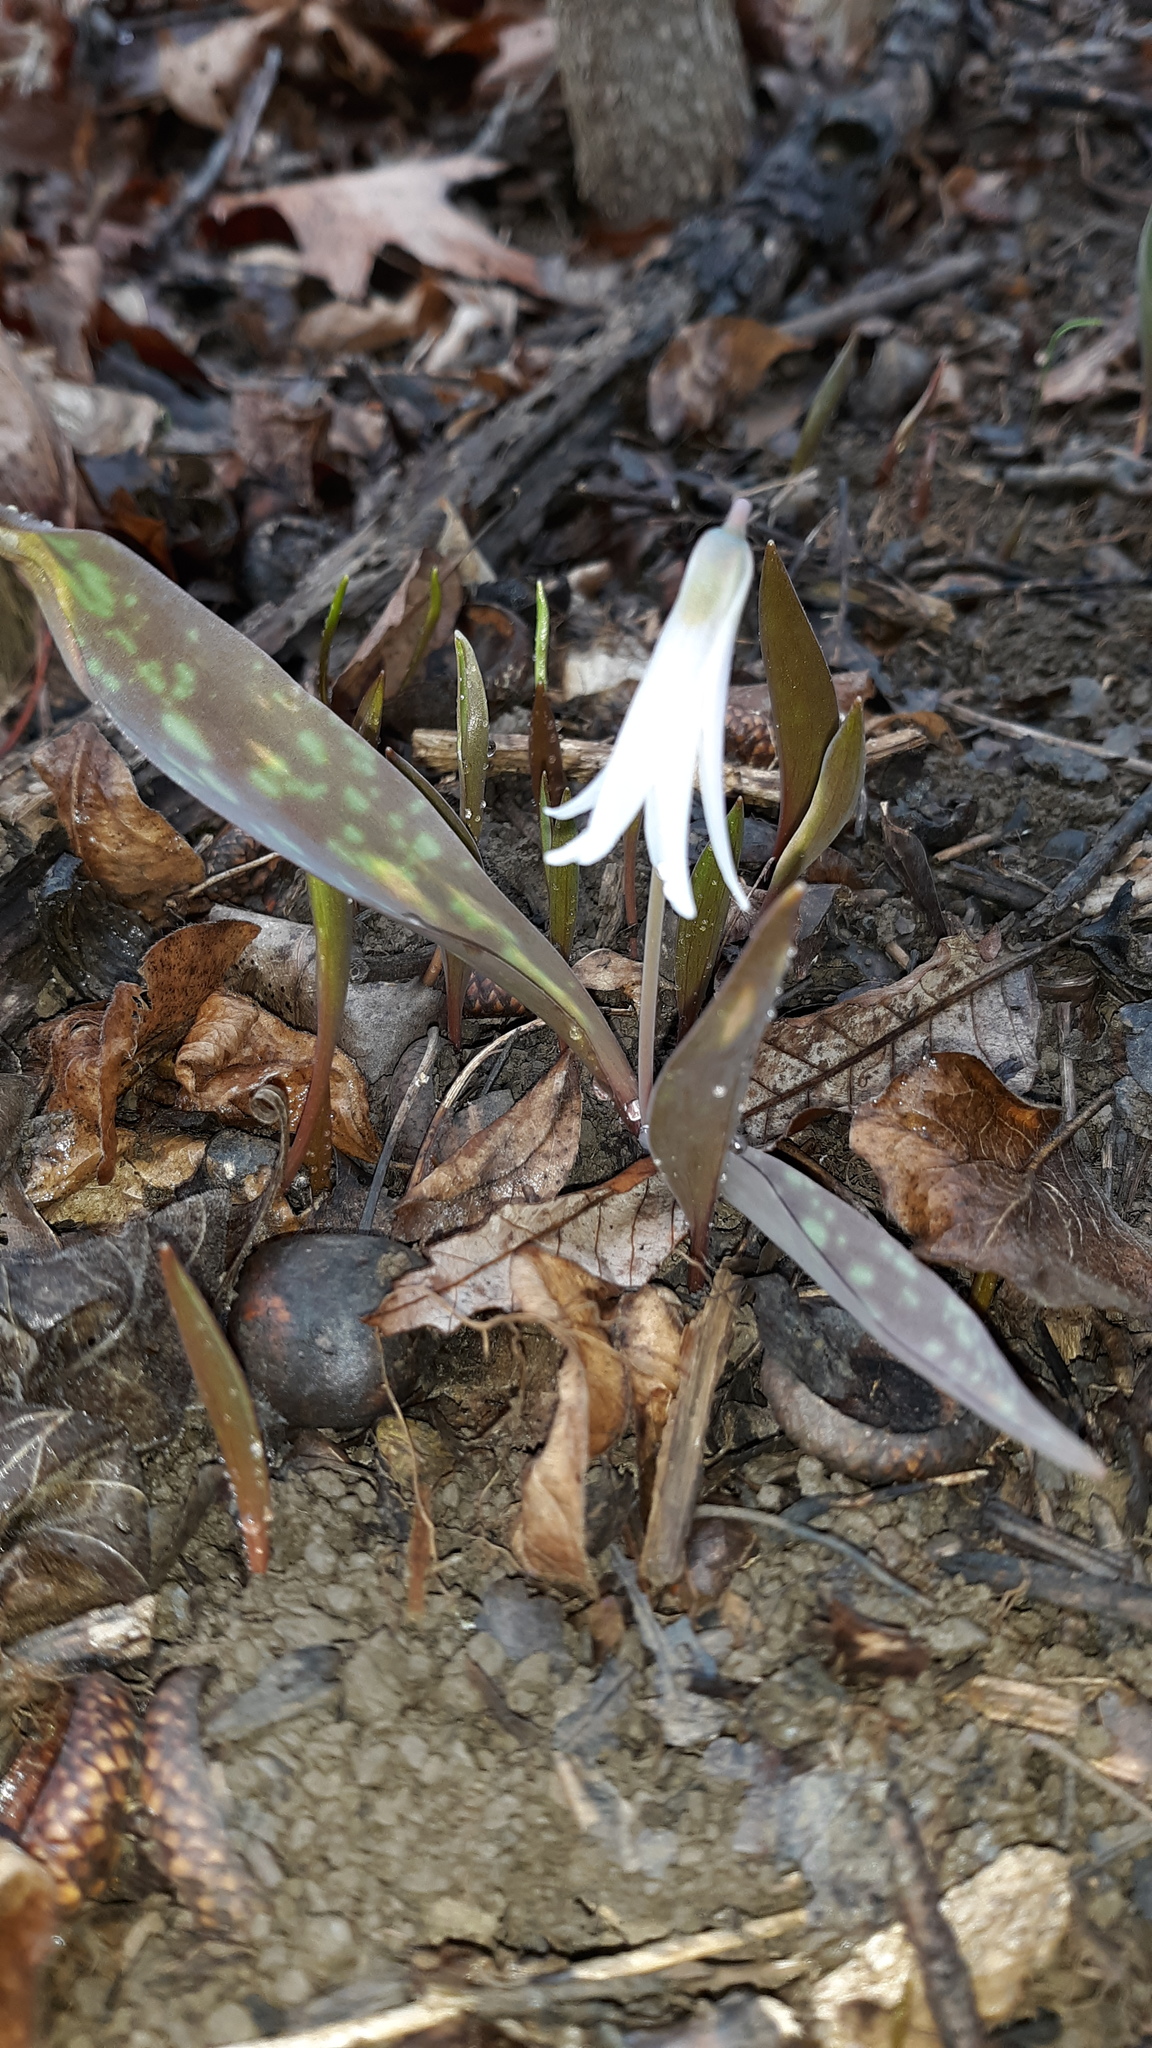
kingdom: Plantae
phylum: Tracheophyta
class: Liliopsida
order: Liliales
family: Liliaceae
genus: Erythronium
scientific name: Erythronium albidum
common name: White trout-lily
